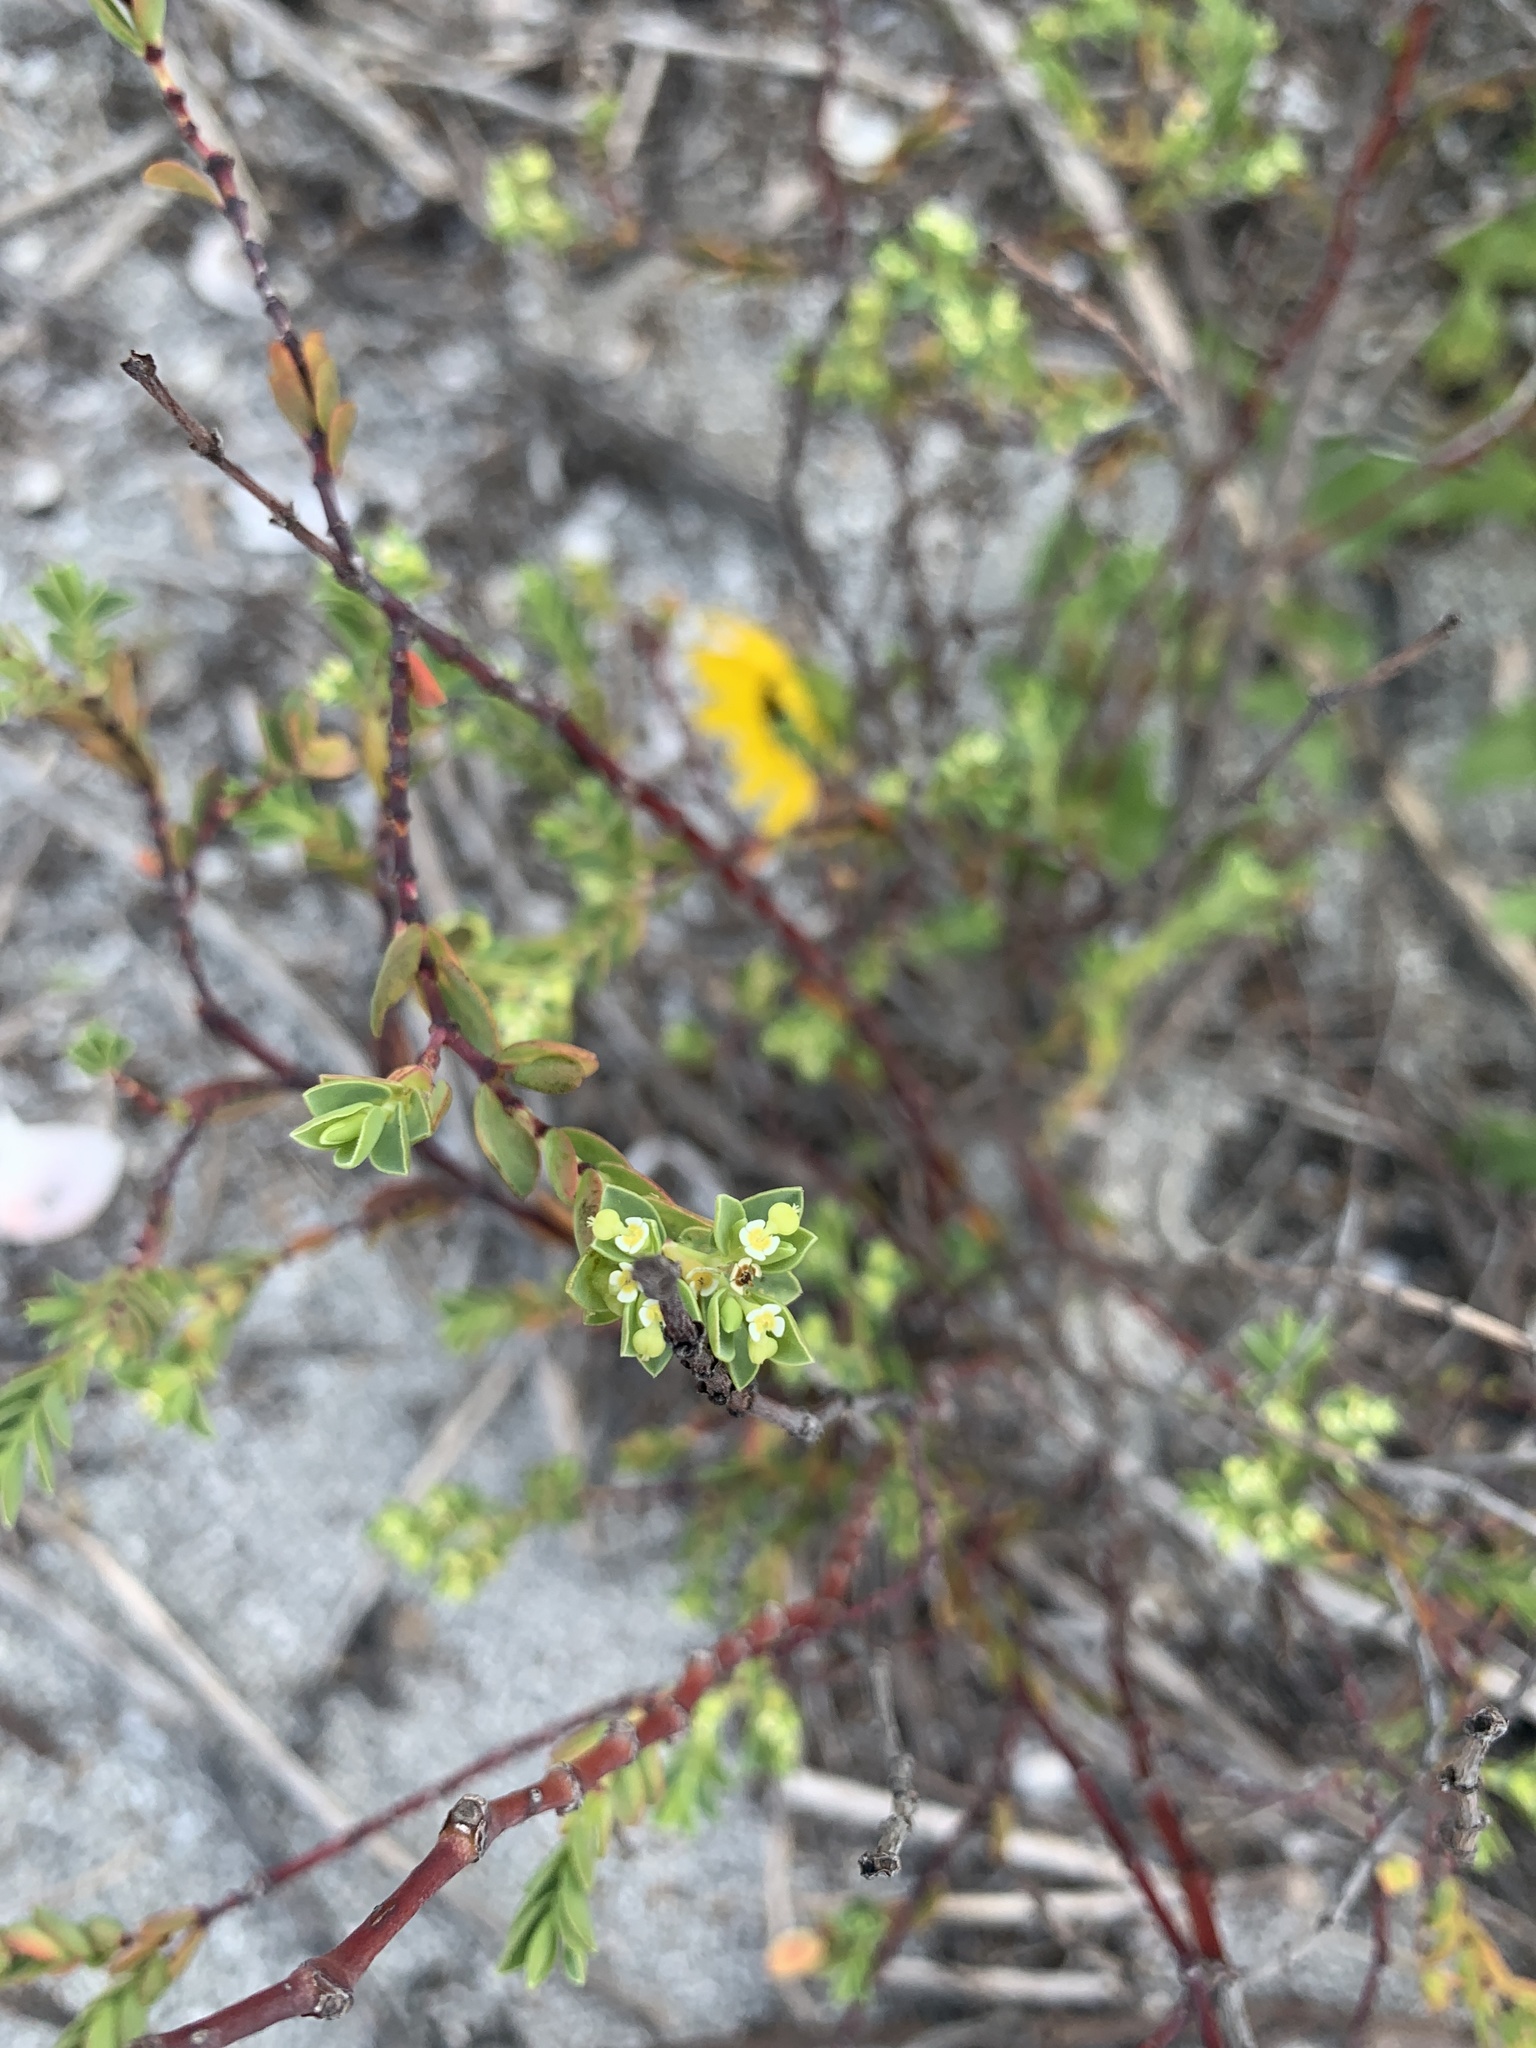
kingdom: Plantae
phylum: Tracheophyta
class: Magnoliopsida
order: Malpighiales
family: Euphorbiaceae
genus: Euphorbia
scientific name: Euphorbia mesembryanthemifolia
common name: Coastal beach sandmat
